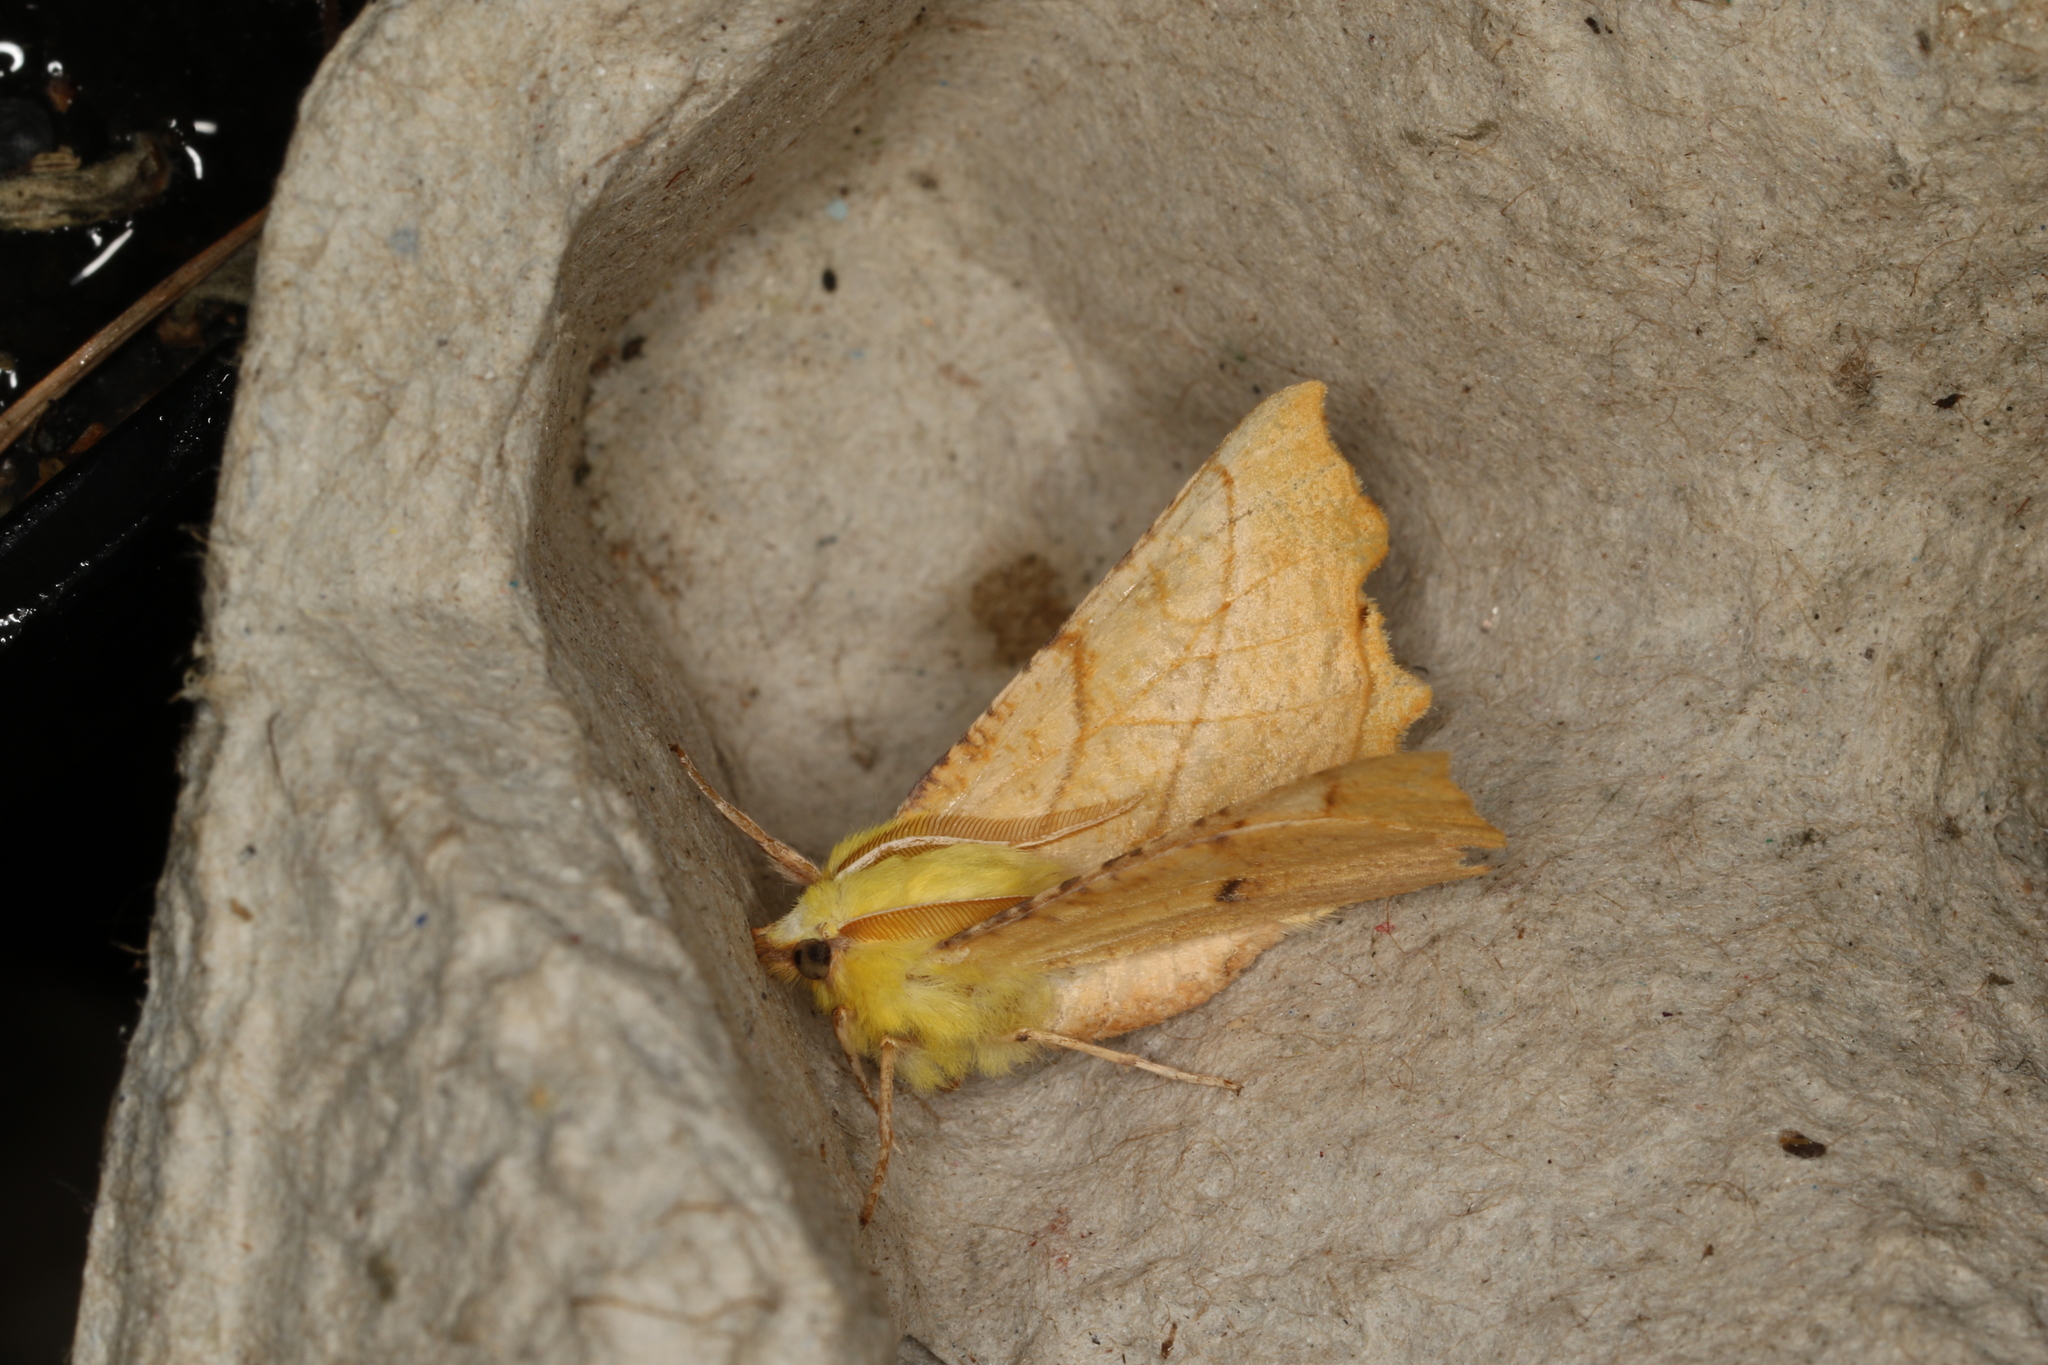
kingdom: Animalia
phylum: Arthropoda
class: Insecta
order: Lepidoptera
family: Geometridae
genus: Ennomos
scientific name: Ennomos alniaria
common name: Canary-shouldered thorn
